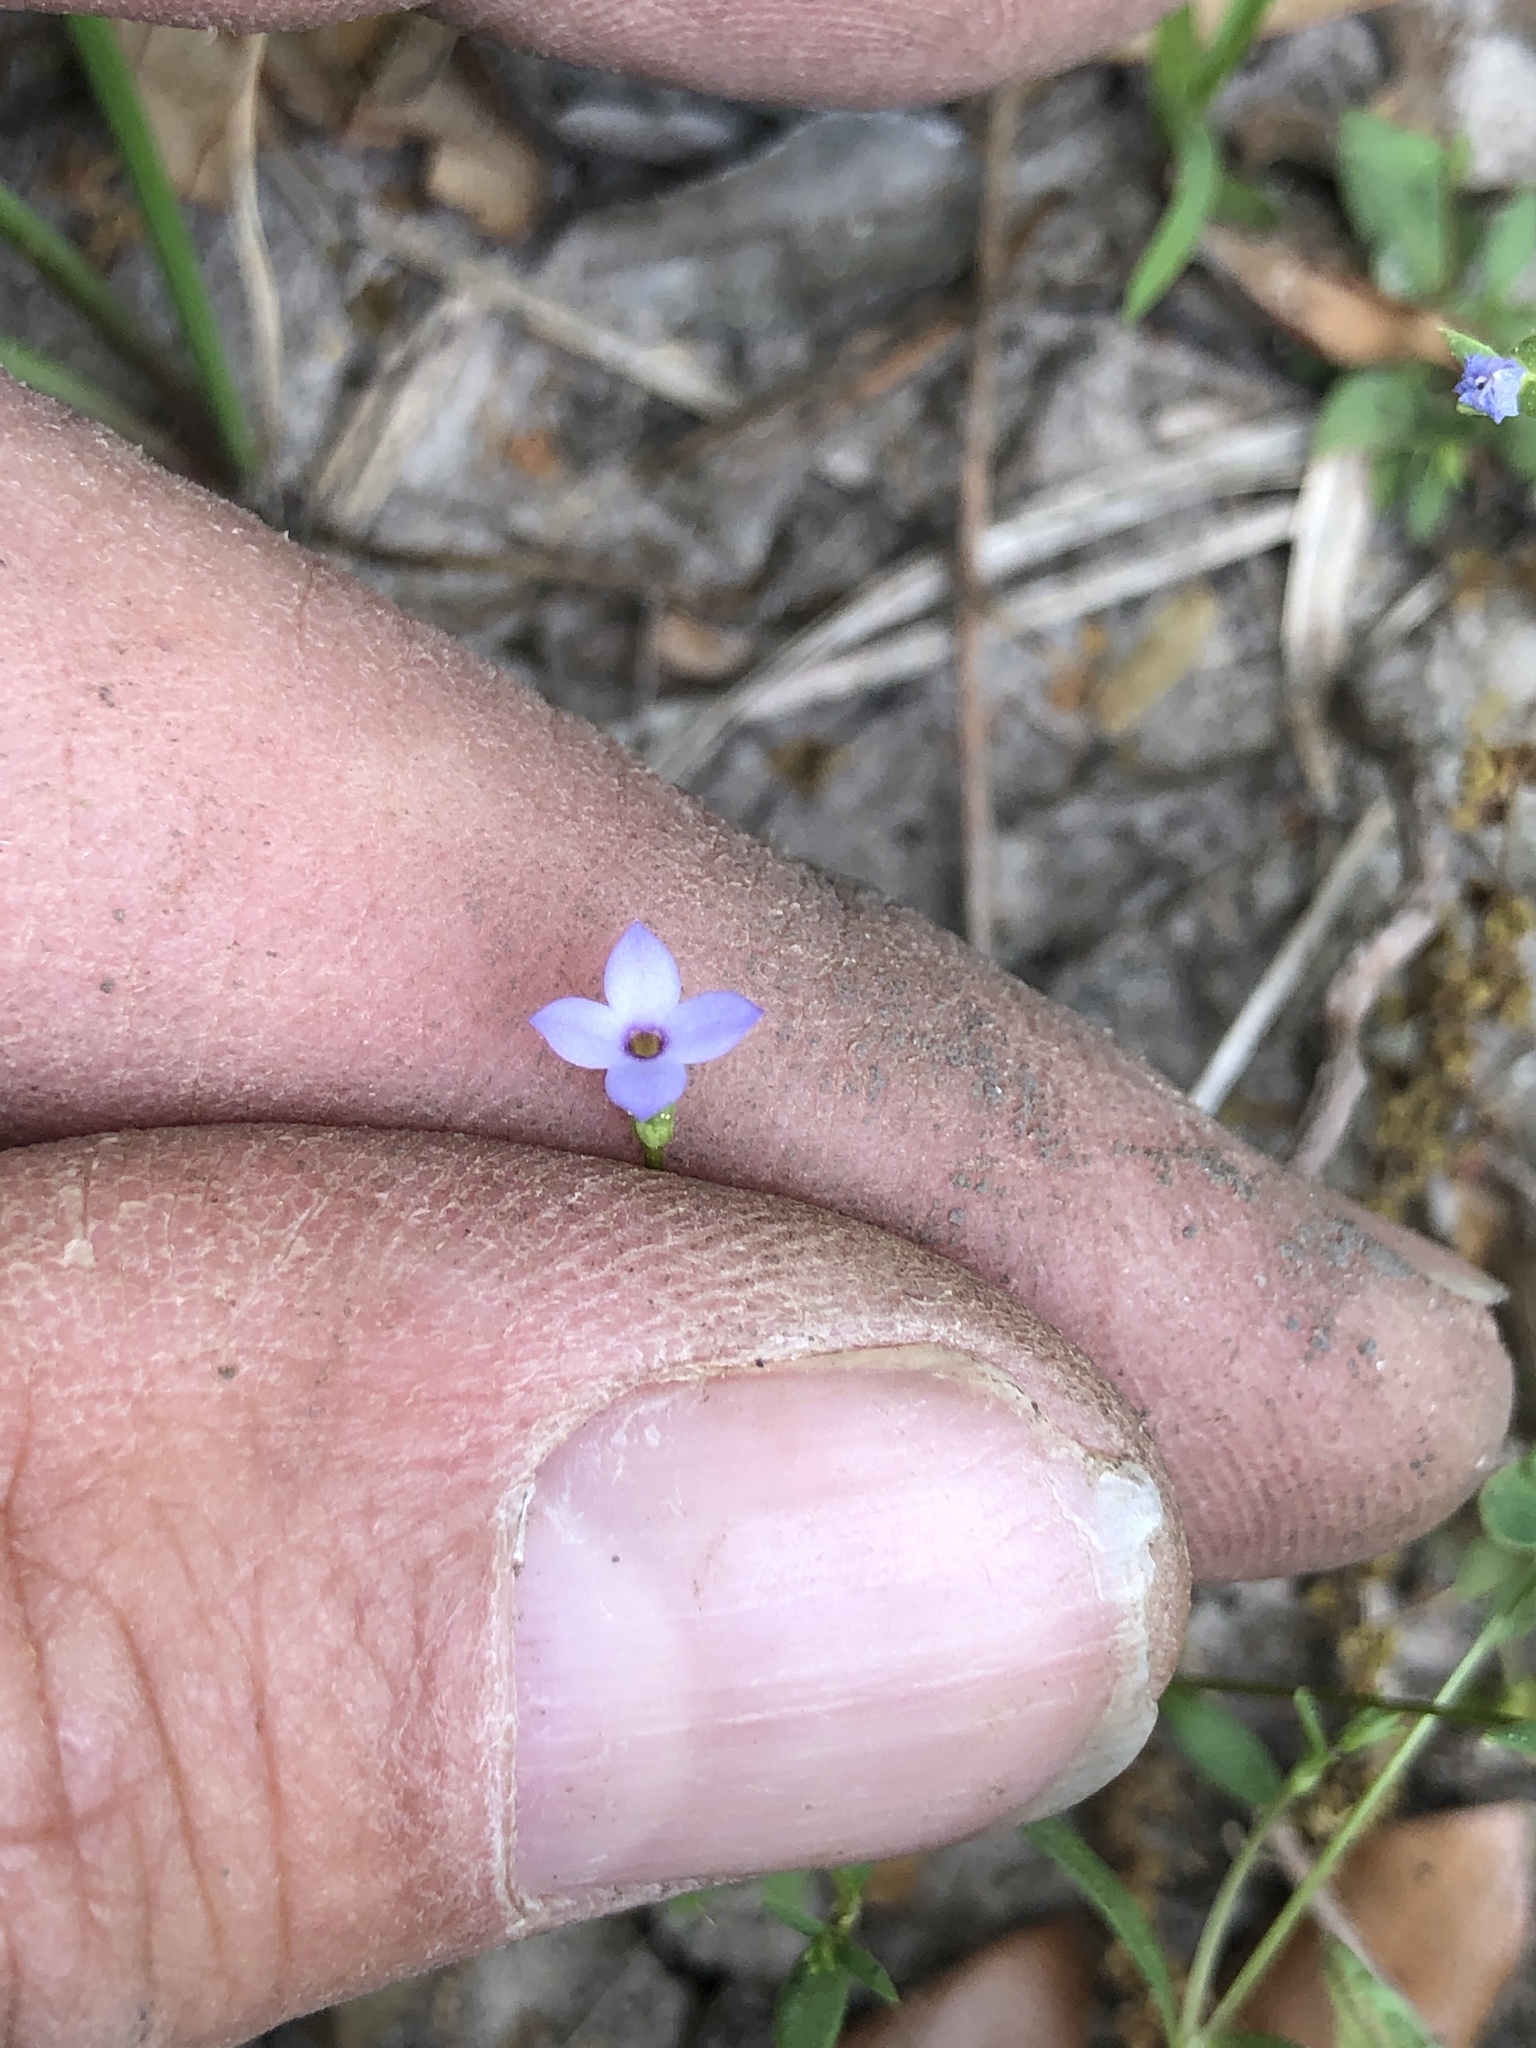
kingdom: Plantae
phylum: Tracheophyta
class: Magnoliopsida
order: Gentianales
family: Rubiaceae
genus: Houstonia
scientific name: Houstonia pusilla
